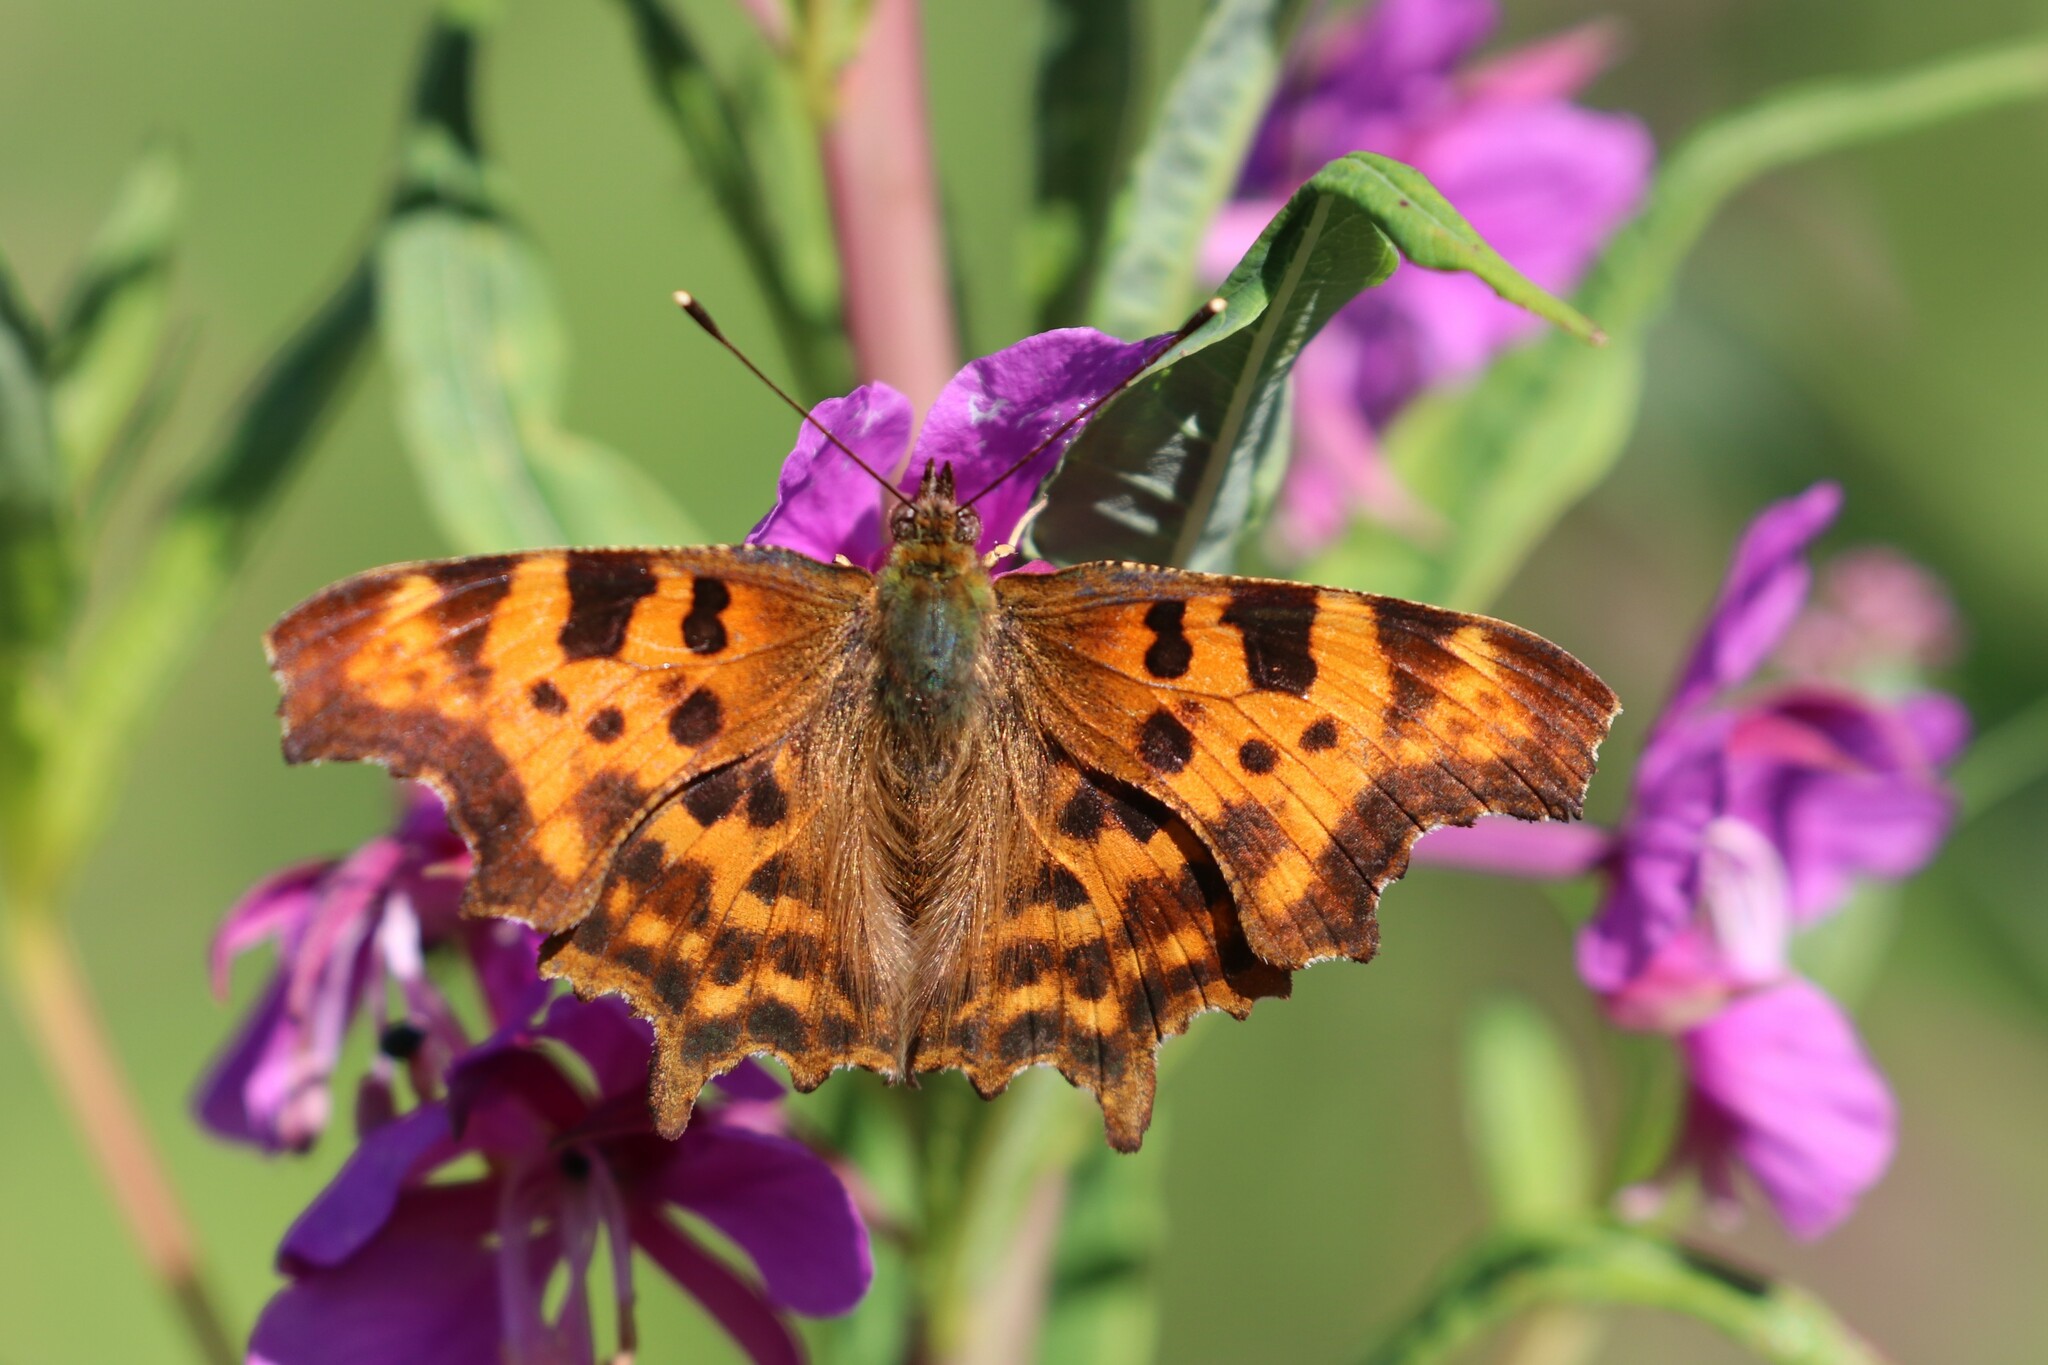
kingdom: Animalia
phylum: Arthropoda
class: Insecta
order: Lepidoptera
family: Nymphalidae
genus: Polygonia
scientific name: Polygonia c-album
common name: Comma
